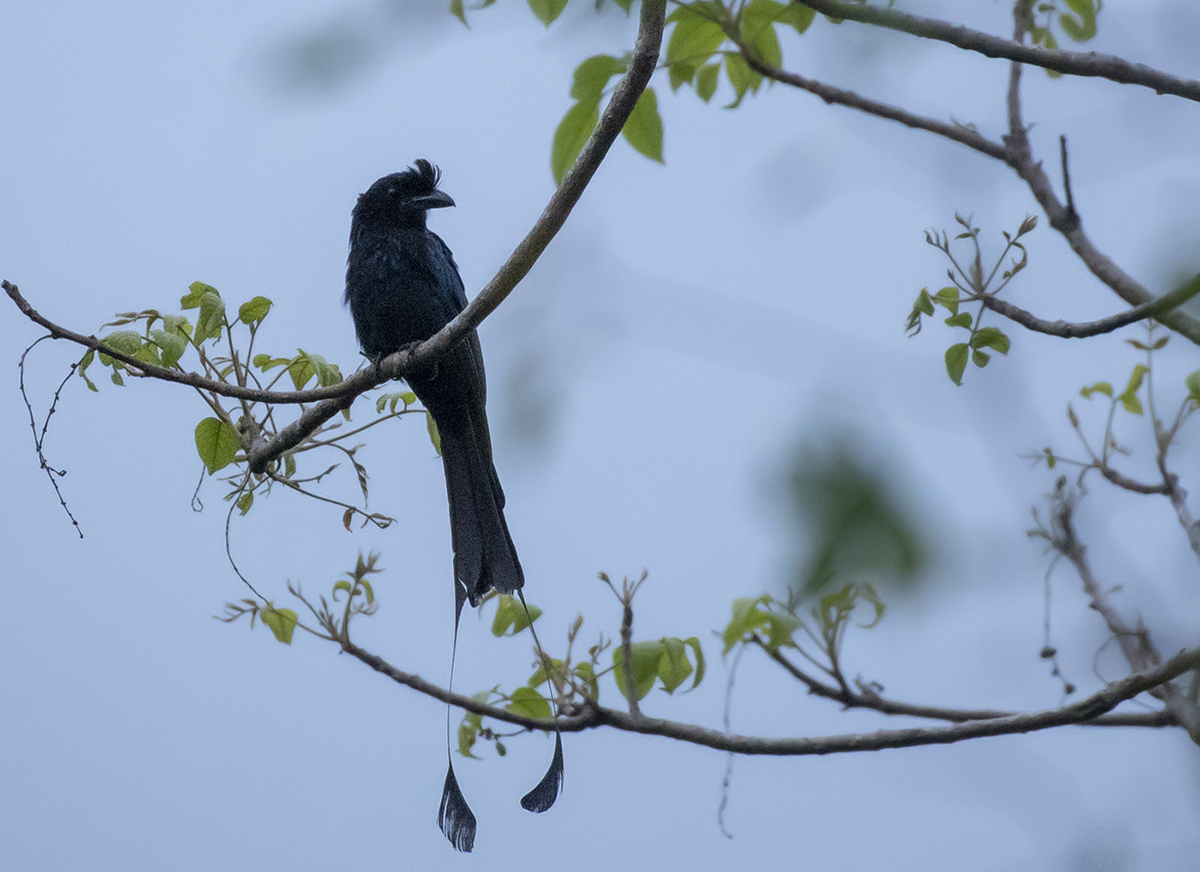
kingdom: Animalia
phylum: Chordata
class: Aves
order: Passeriformes
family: Dicruridae
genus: Dicrurus
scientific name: Dicrurus paradiseus
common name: Greater racket-tailed drongo
